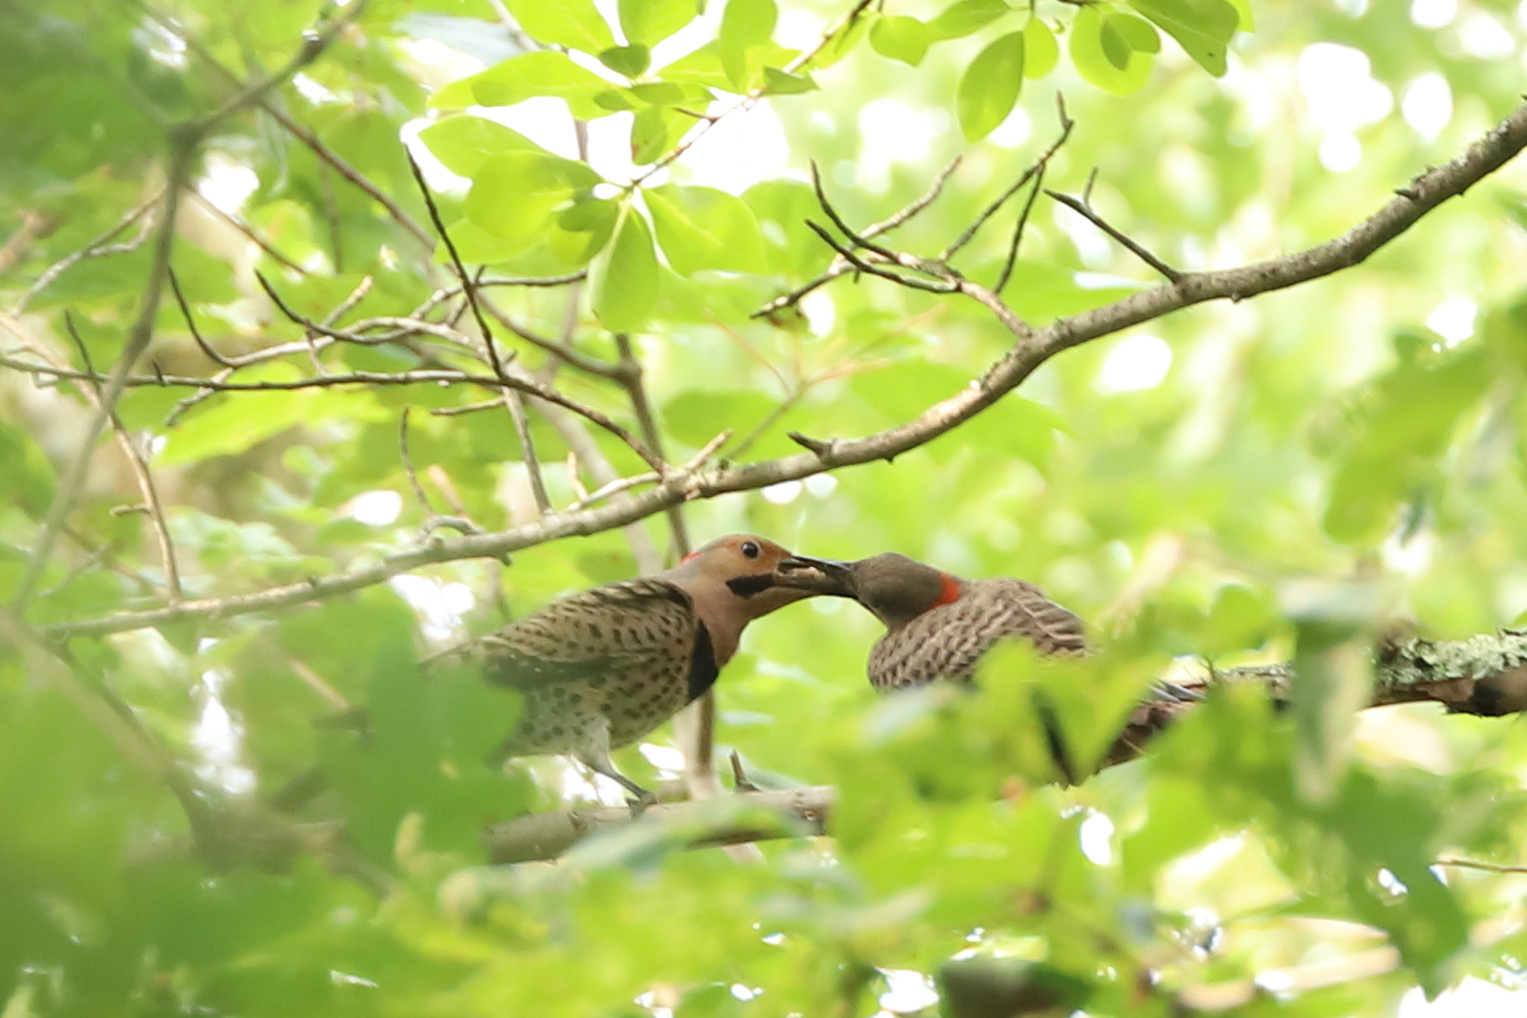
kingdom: Animalia
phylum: Chordata
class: Aves
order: Piciformes
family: Picidae
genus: Colaptes
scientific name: Colaptes auratus
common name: Northern flicker
